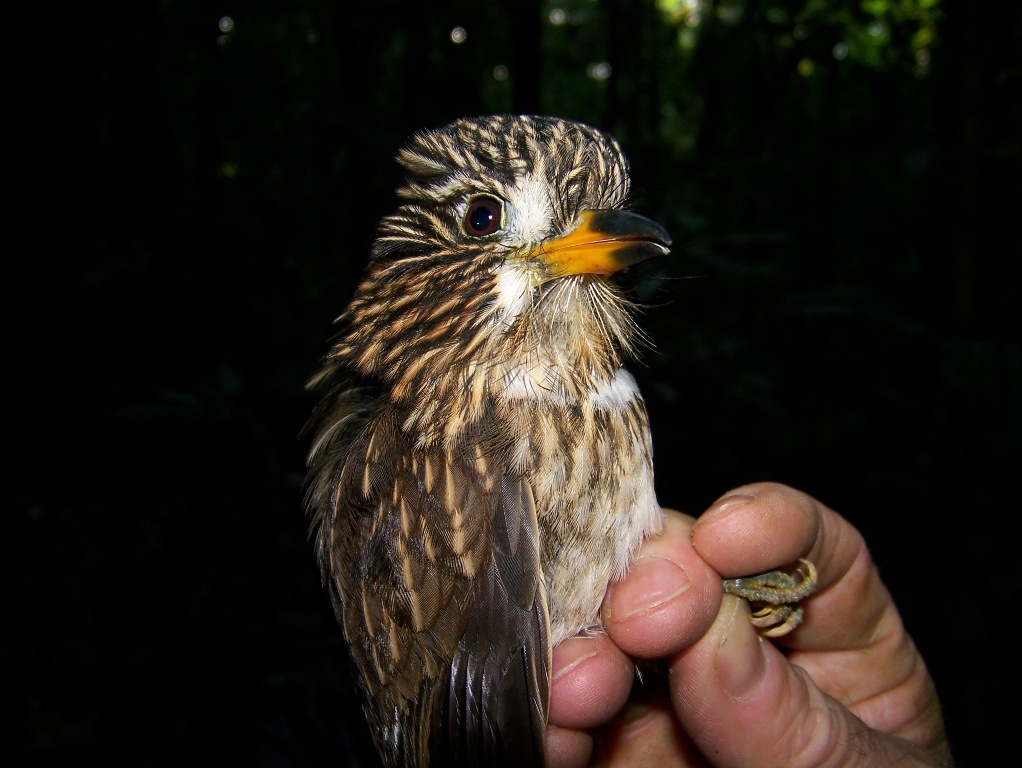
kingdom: Animalia
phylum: Chordata
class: Aves
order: Piciformes
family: Bucconidae
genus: Malacoptila
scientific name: Malacoptila fusca
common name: White-chested puffbird
